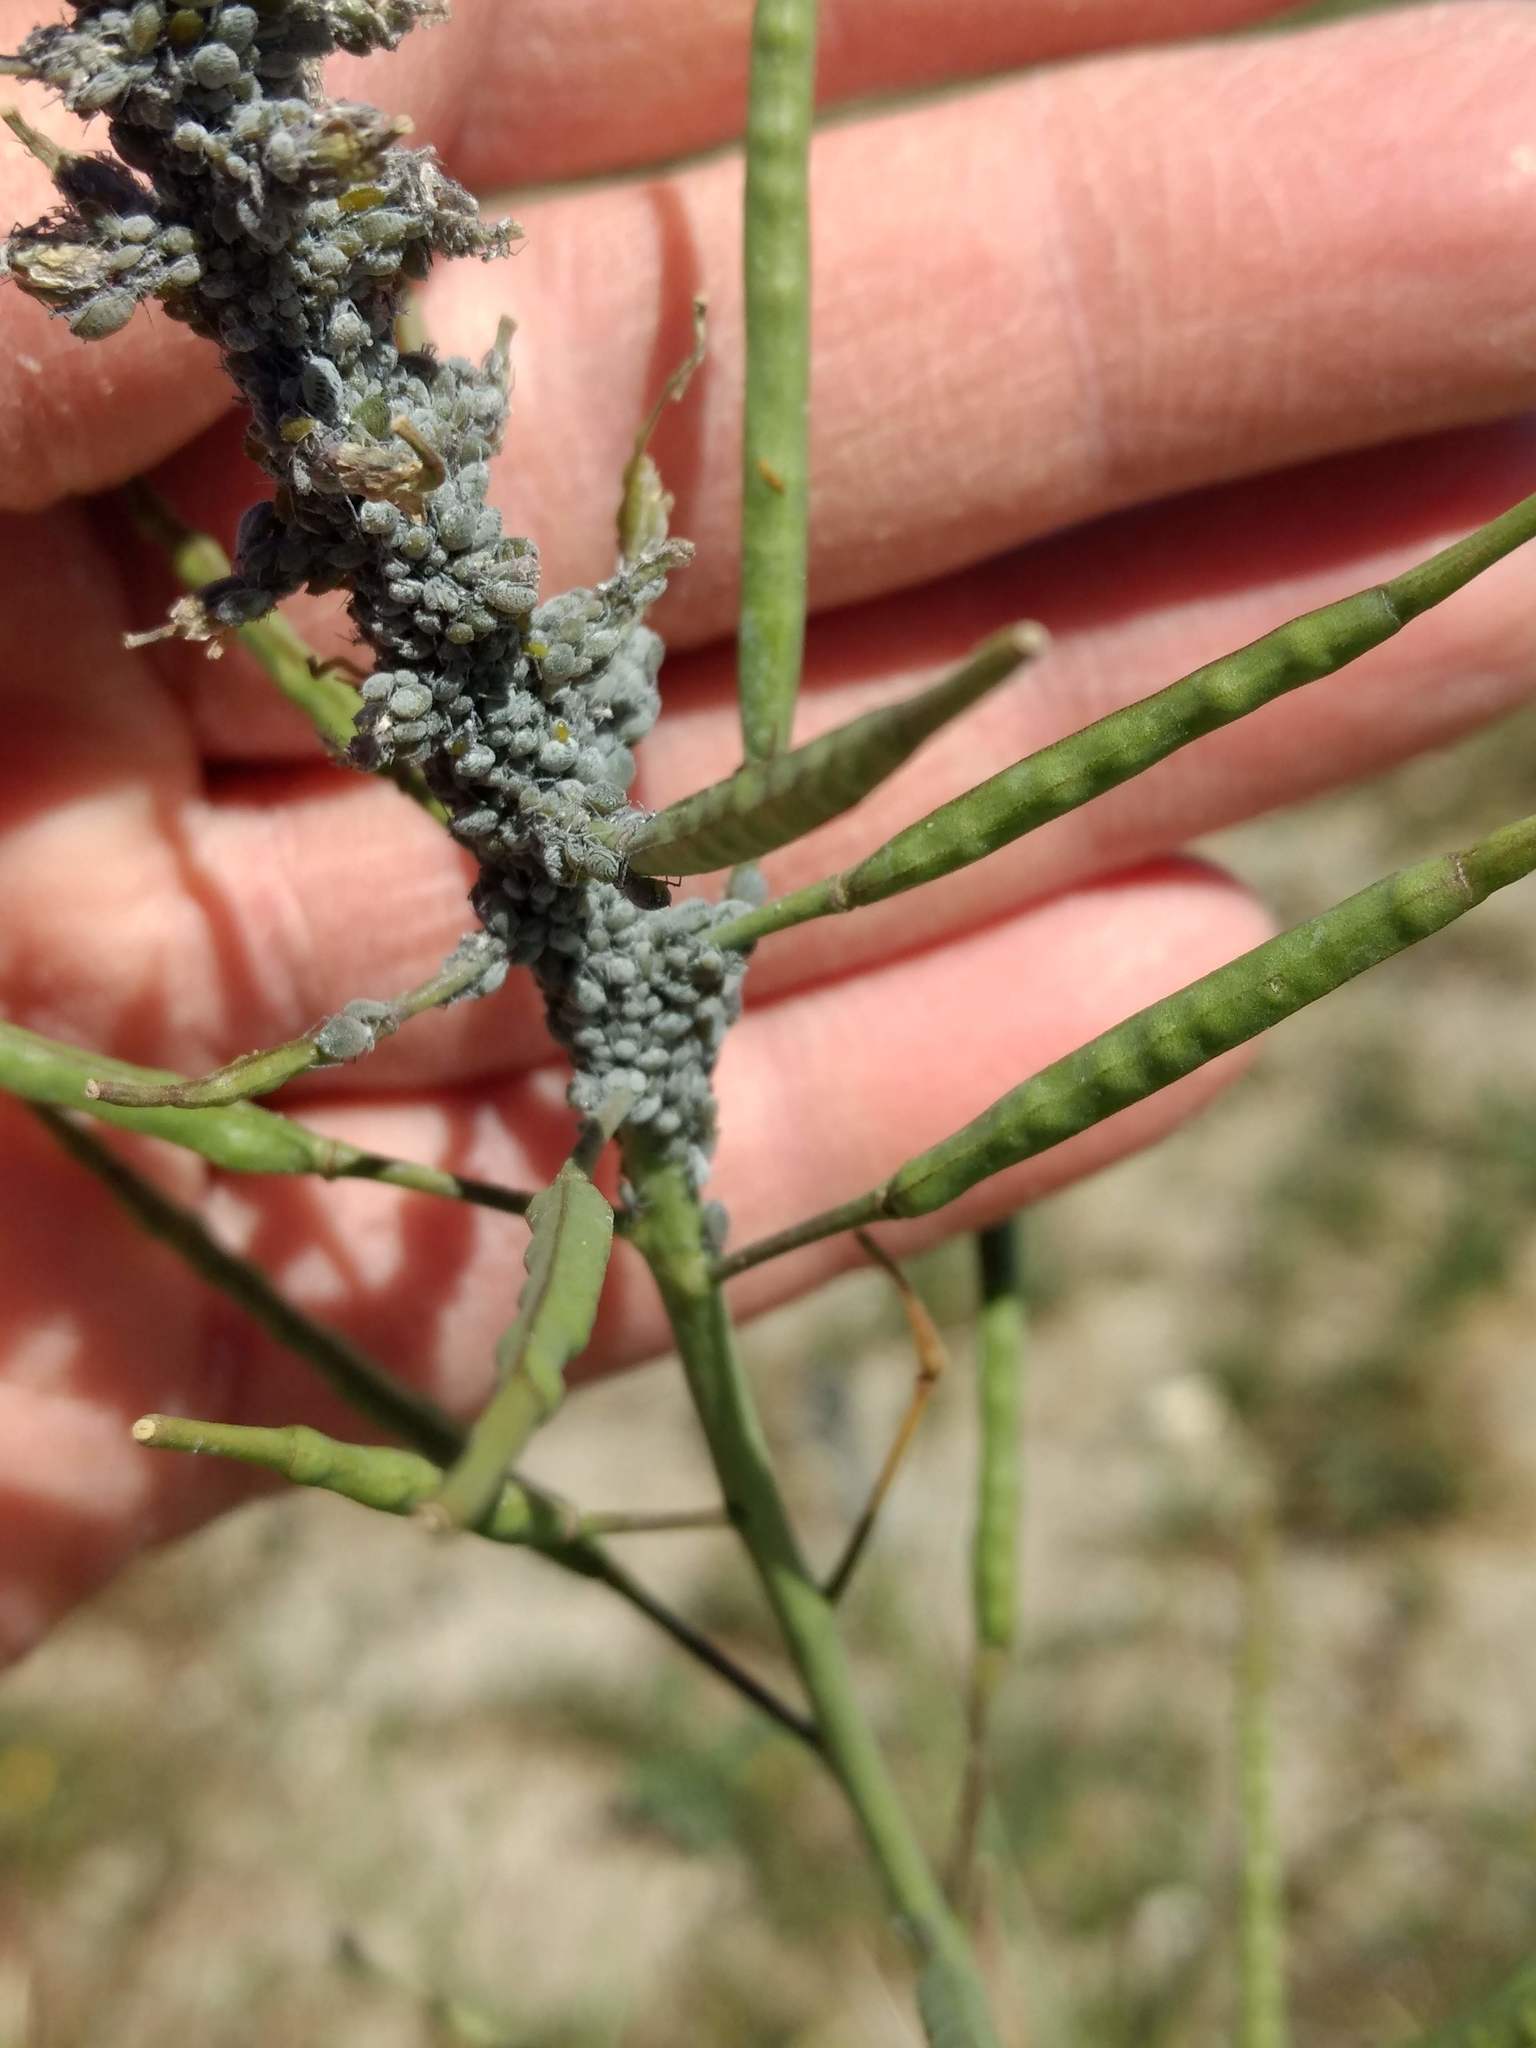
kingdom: Animalia
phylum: Arthropoda
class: Insecta
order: Hemiptera
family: Aphididae
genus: Brevicoryne
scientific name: Brevicoryne brassicae
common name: Cabbage aphid
